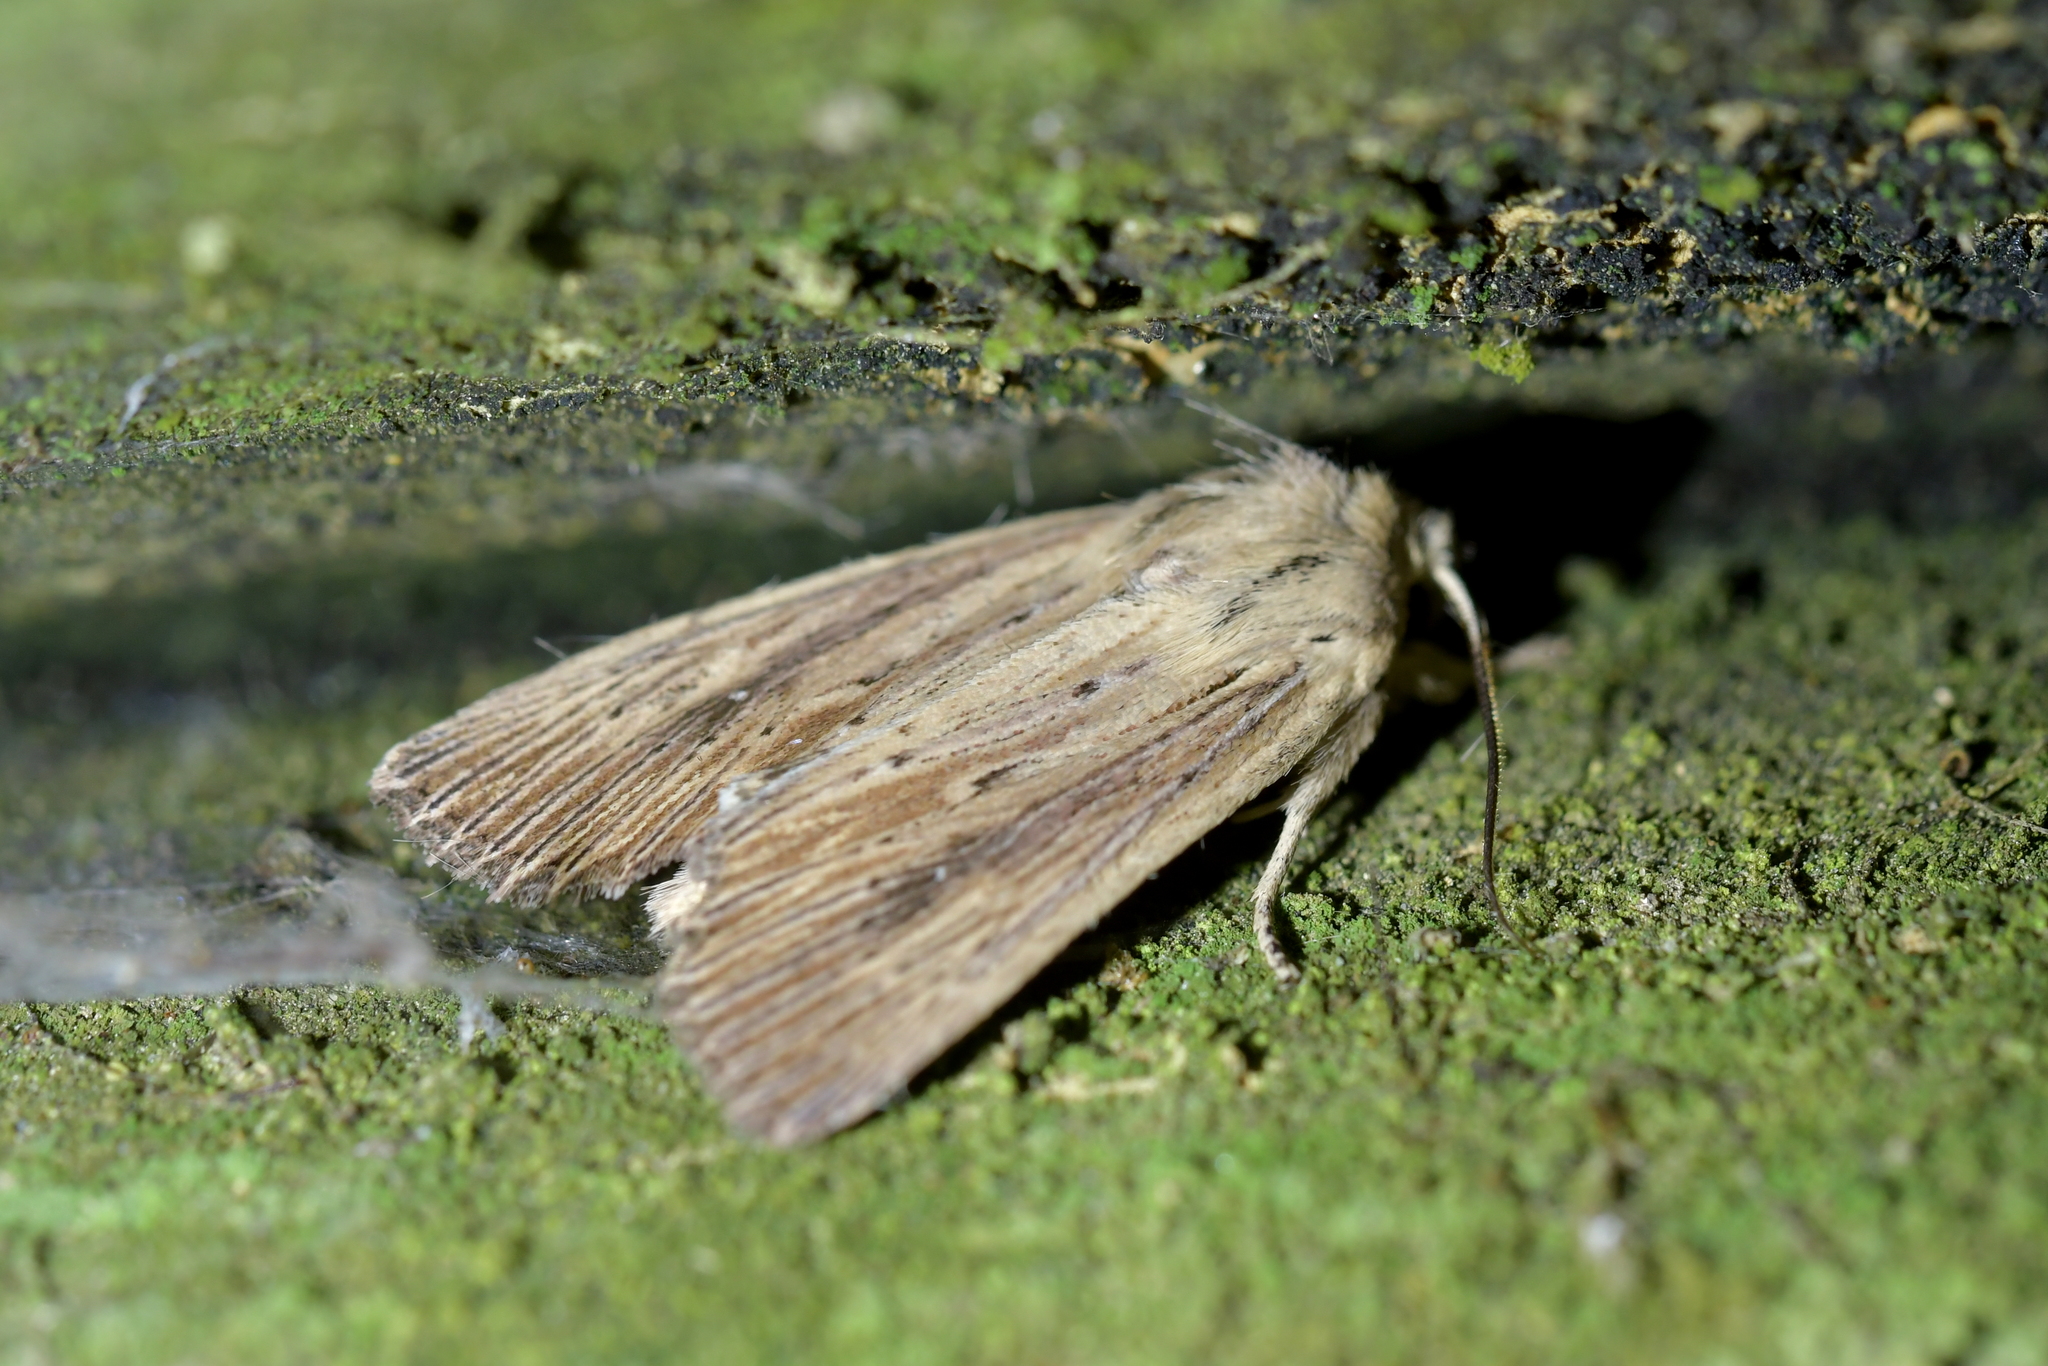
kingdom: Animalia
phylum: Arthropoda
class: Insecta
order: Lepidoptera
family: Noctuidae
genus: Ichneutica
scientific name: Ichneutica arotis
